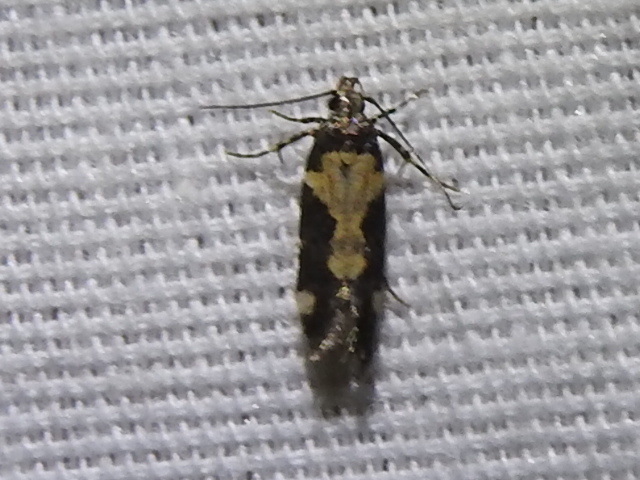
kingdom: Animalia
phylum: Arthropoda
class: Insecta
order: Lepidoptera
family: Gelechiidae
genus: Stegasta
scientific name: Stegasta bosqueella
